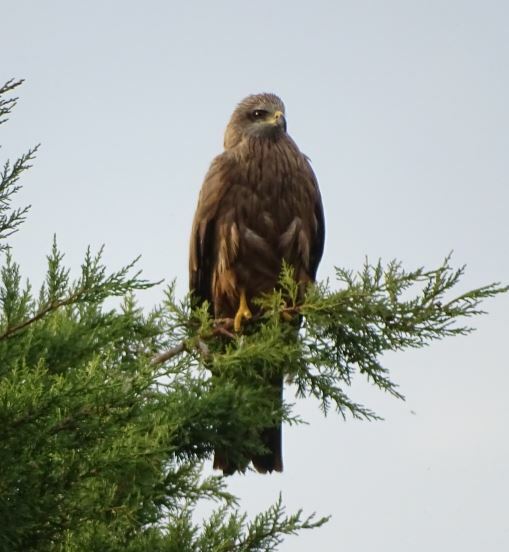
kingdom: Animalia
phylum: Chordata
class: Aves
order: Accipitriformes
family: Accipitridae
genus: Milvus
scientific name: Milvus migrans
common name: Black kite
